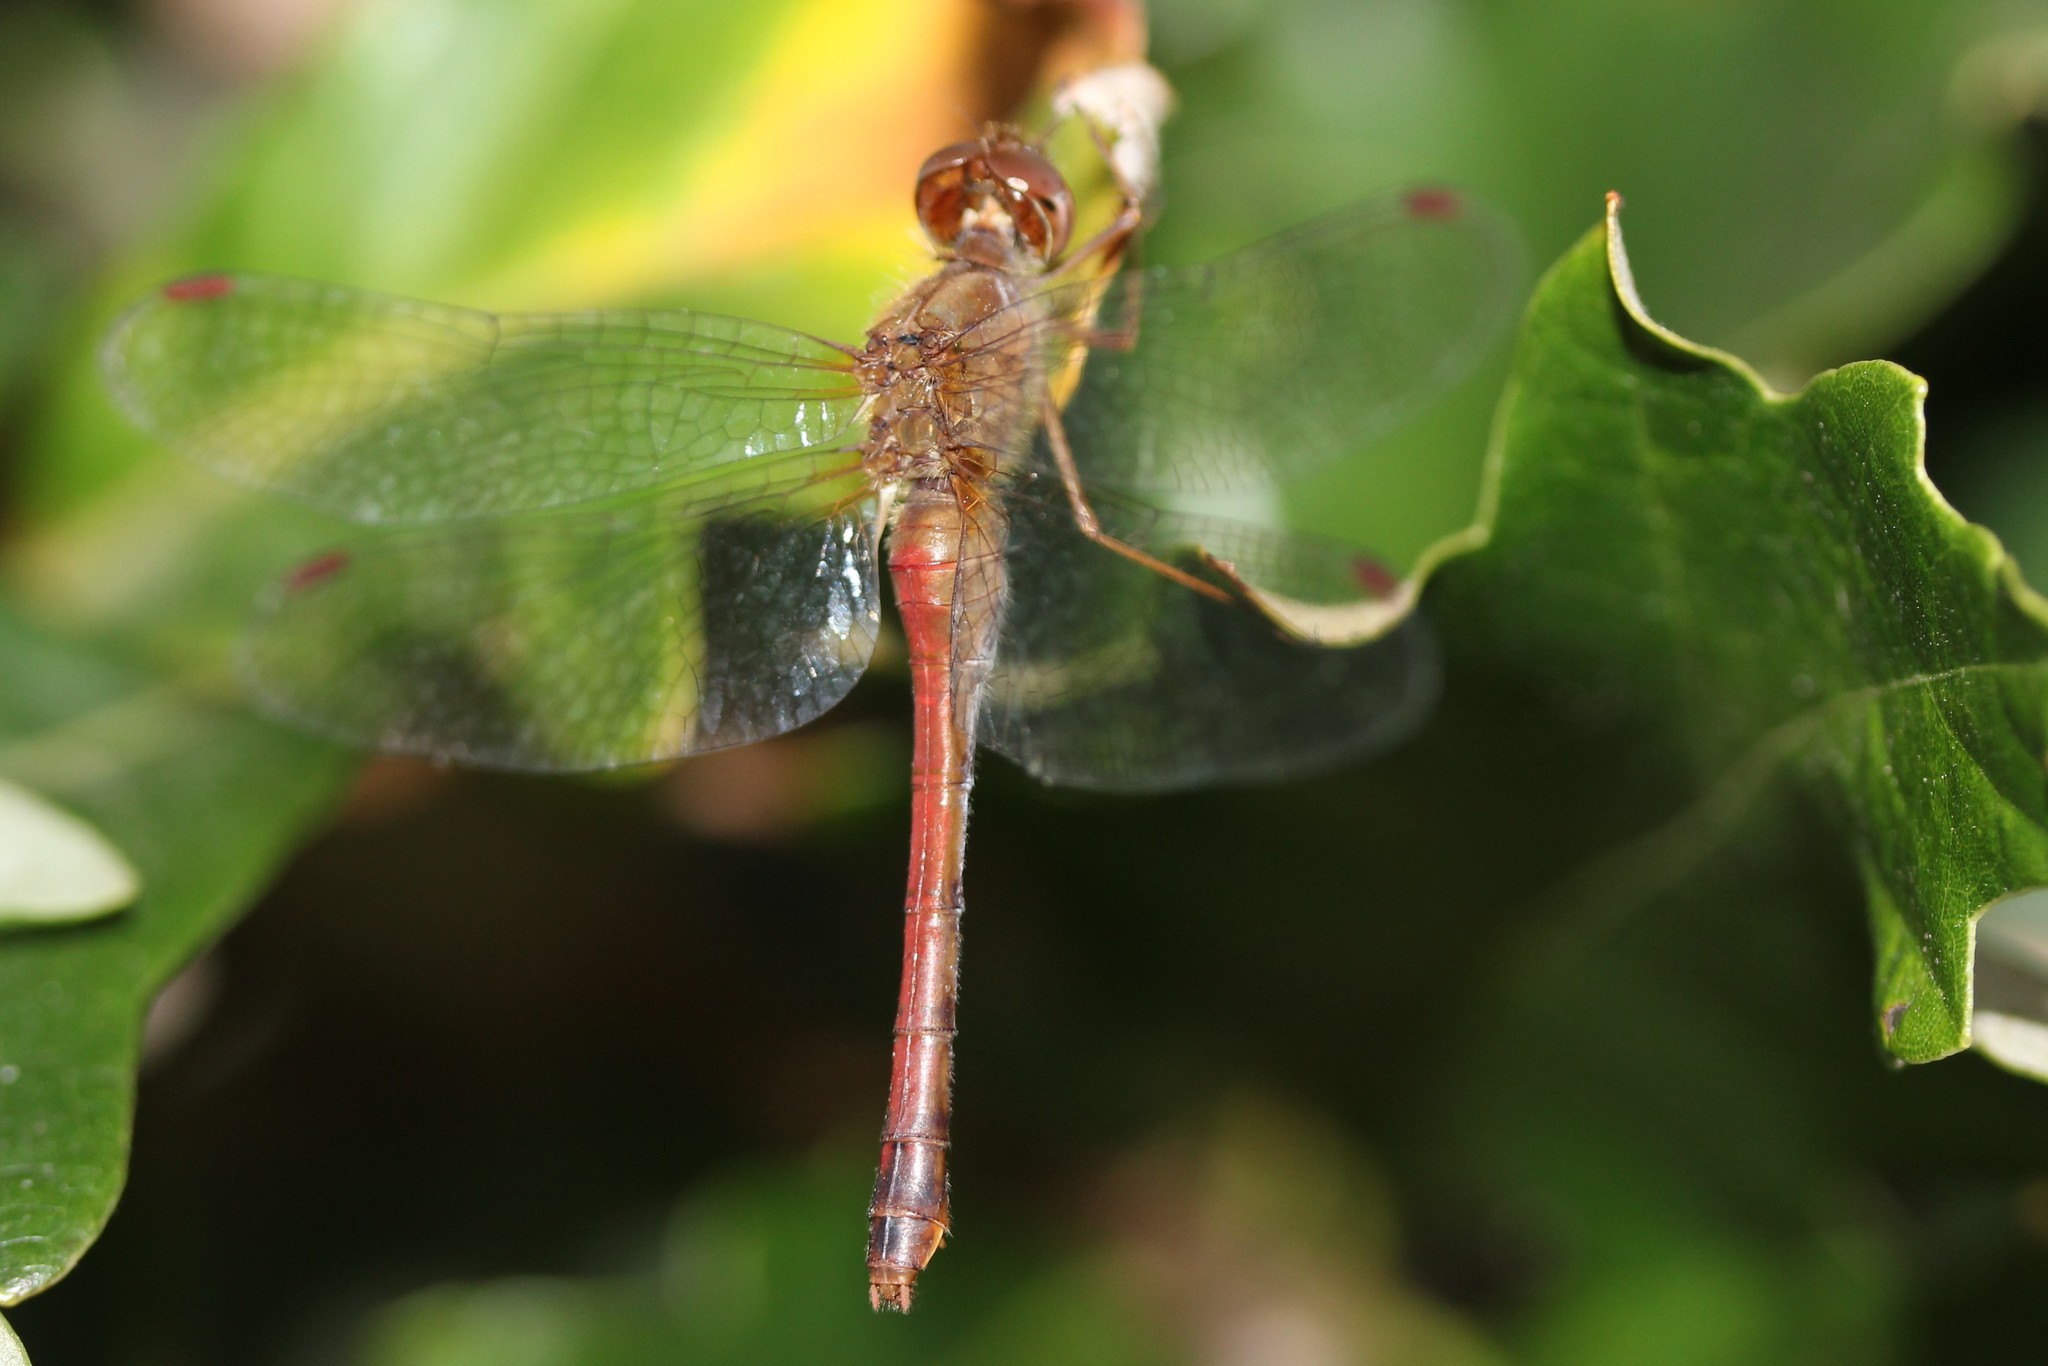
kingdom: Animalia
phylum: Arthropoda
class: Insecta
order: Odonata
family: Libellulidae
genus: Sympetrum
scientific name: Sympetrum vicinum
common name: Autumn meadowhawk
